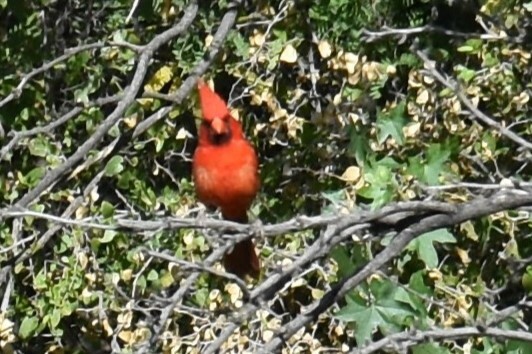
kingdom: Animalia
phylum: Chordata
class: Aves
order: Passeriformes
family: Cardinalidae
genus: Cardinalis
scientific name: Cardinalis cardinalis
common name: Northern cardinal
